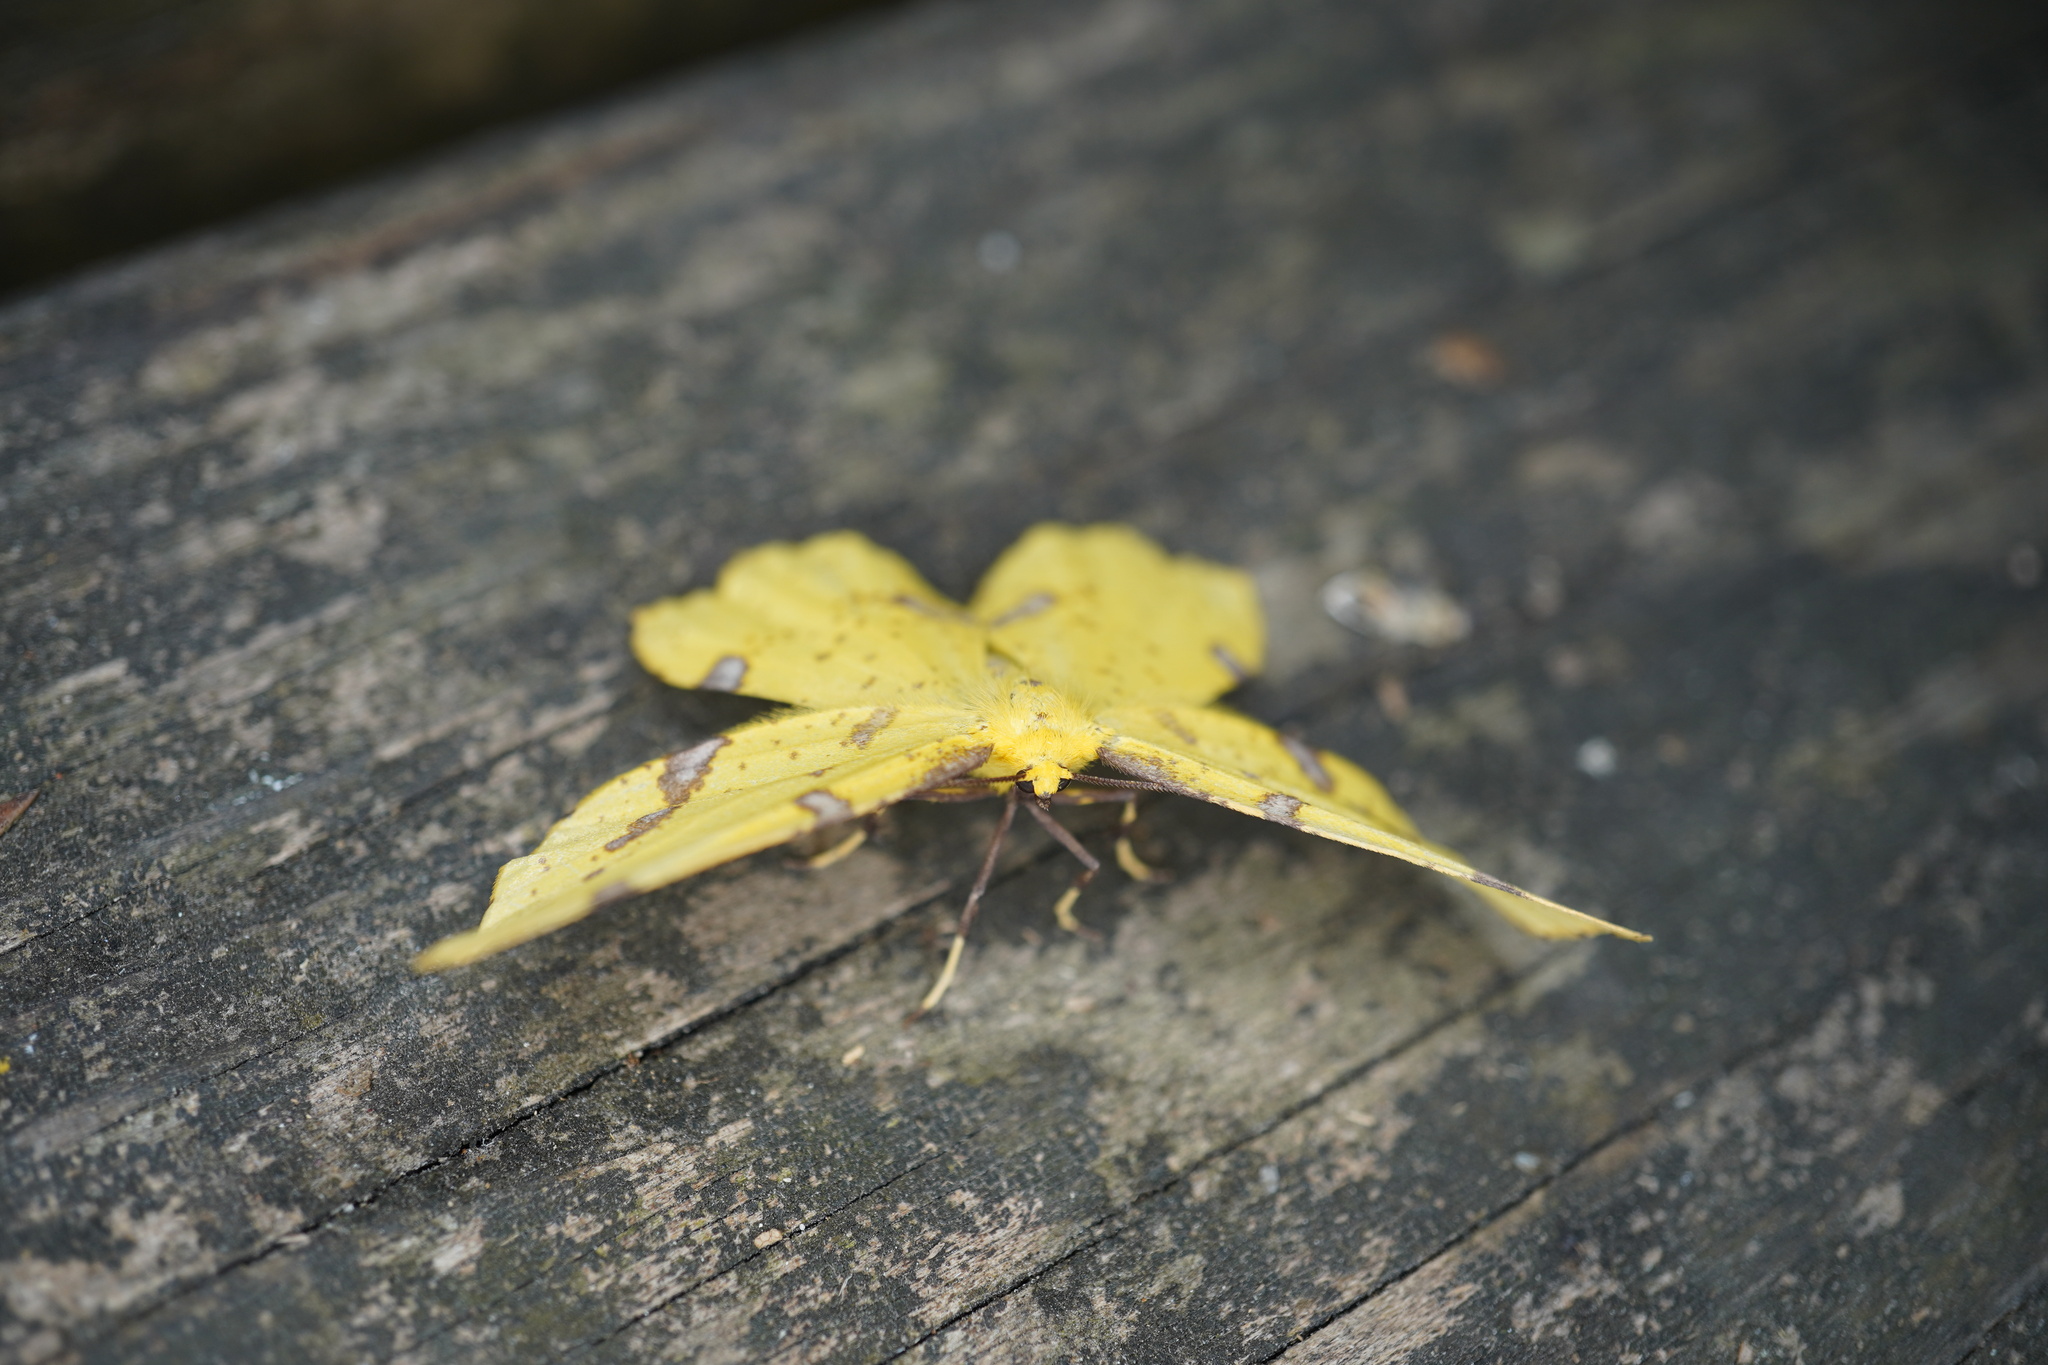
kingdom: Animalia
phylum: Arthropoda
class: Insecta
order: Lepidoptera
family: Geometridae
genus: Xanthotype
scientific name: Xanthotype
